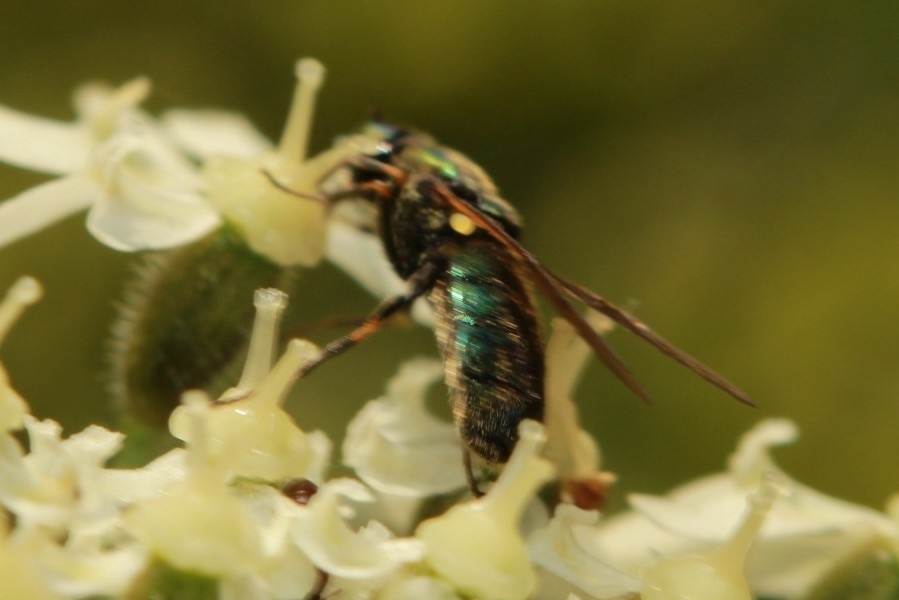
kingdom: Animalia
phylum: Arthropoda
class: Insecta
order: Diptera
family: Stratiomyidae
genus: Chloromyia
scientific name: Chloromyia formosa
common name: Soldier fly
